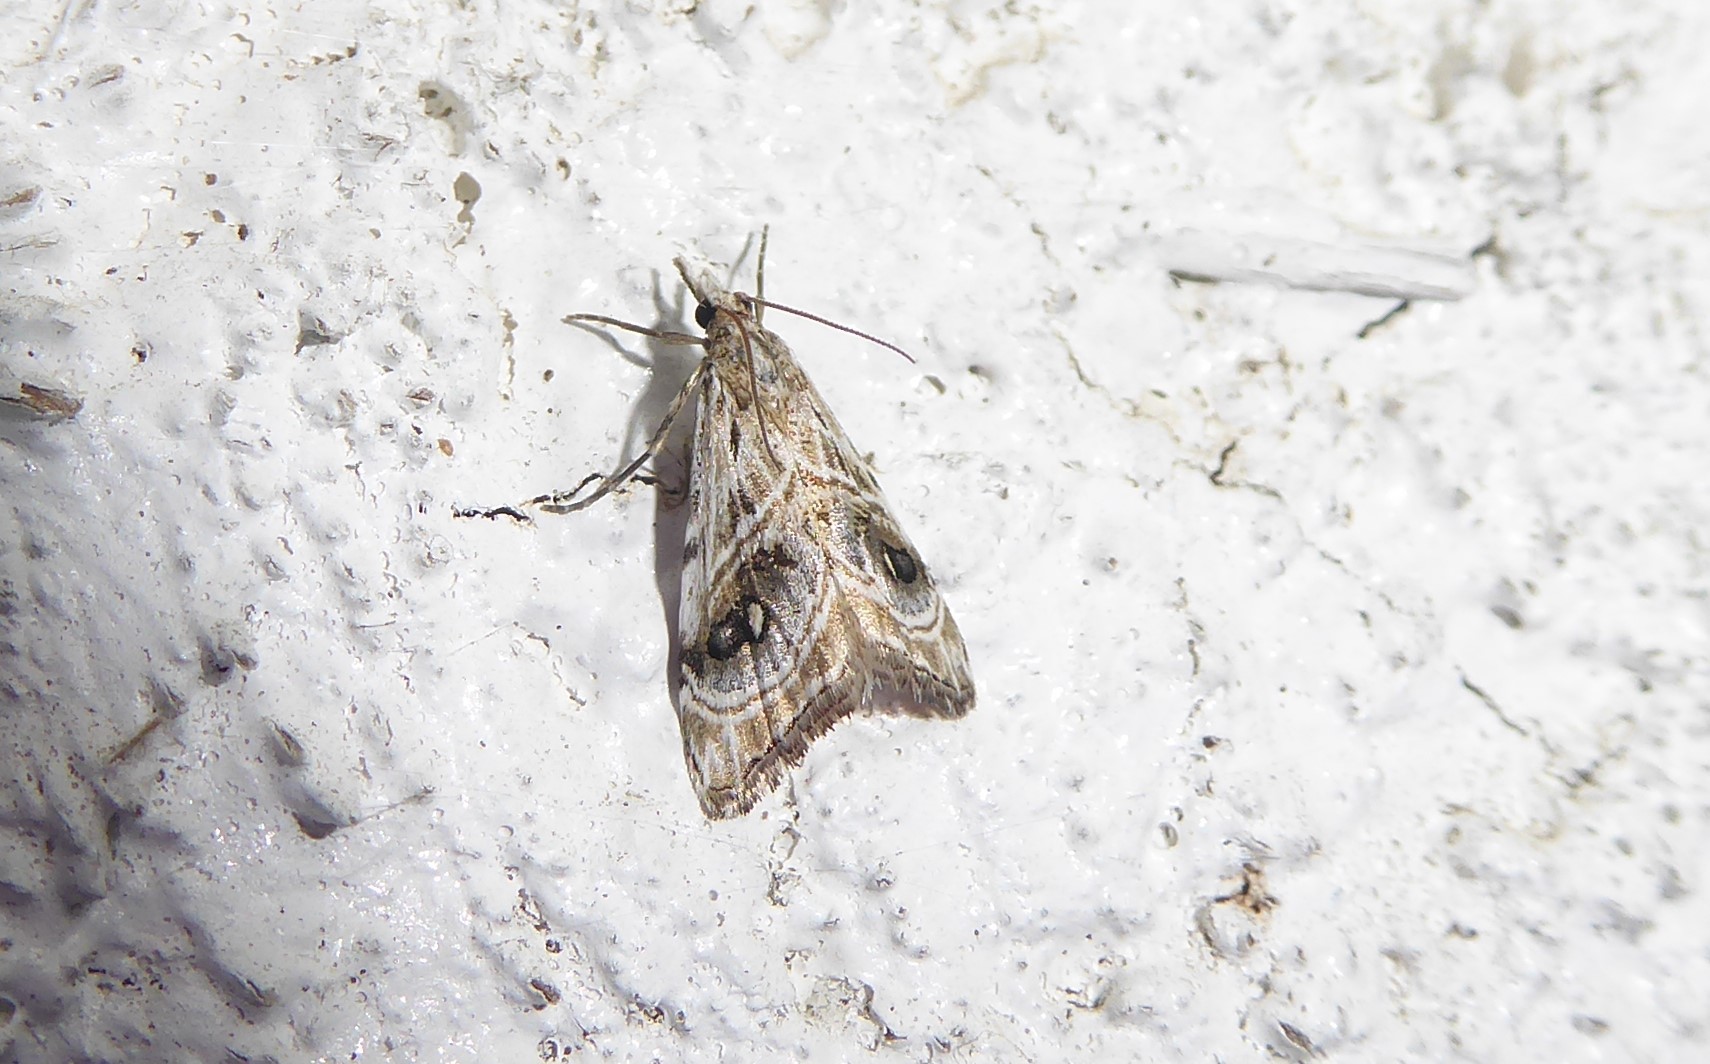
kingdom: Animalia
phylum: Arthropoda
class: Insecta
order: Lepidoptera
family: Crambidae
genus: Gadira
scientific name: Gadira acerella
